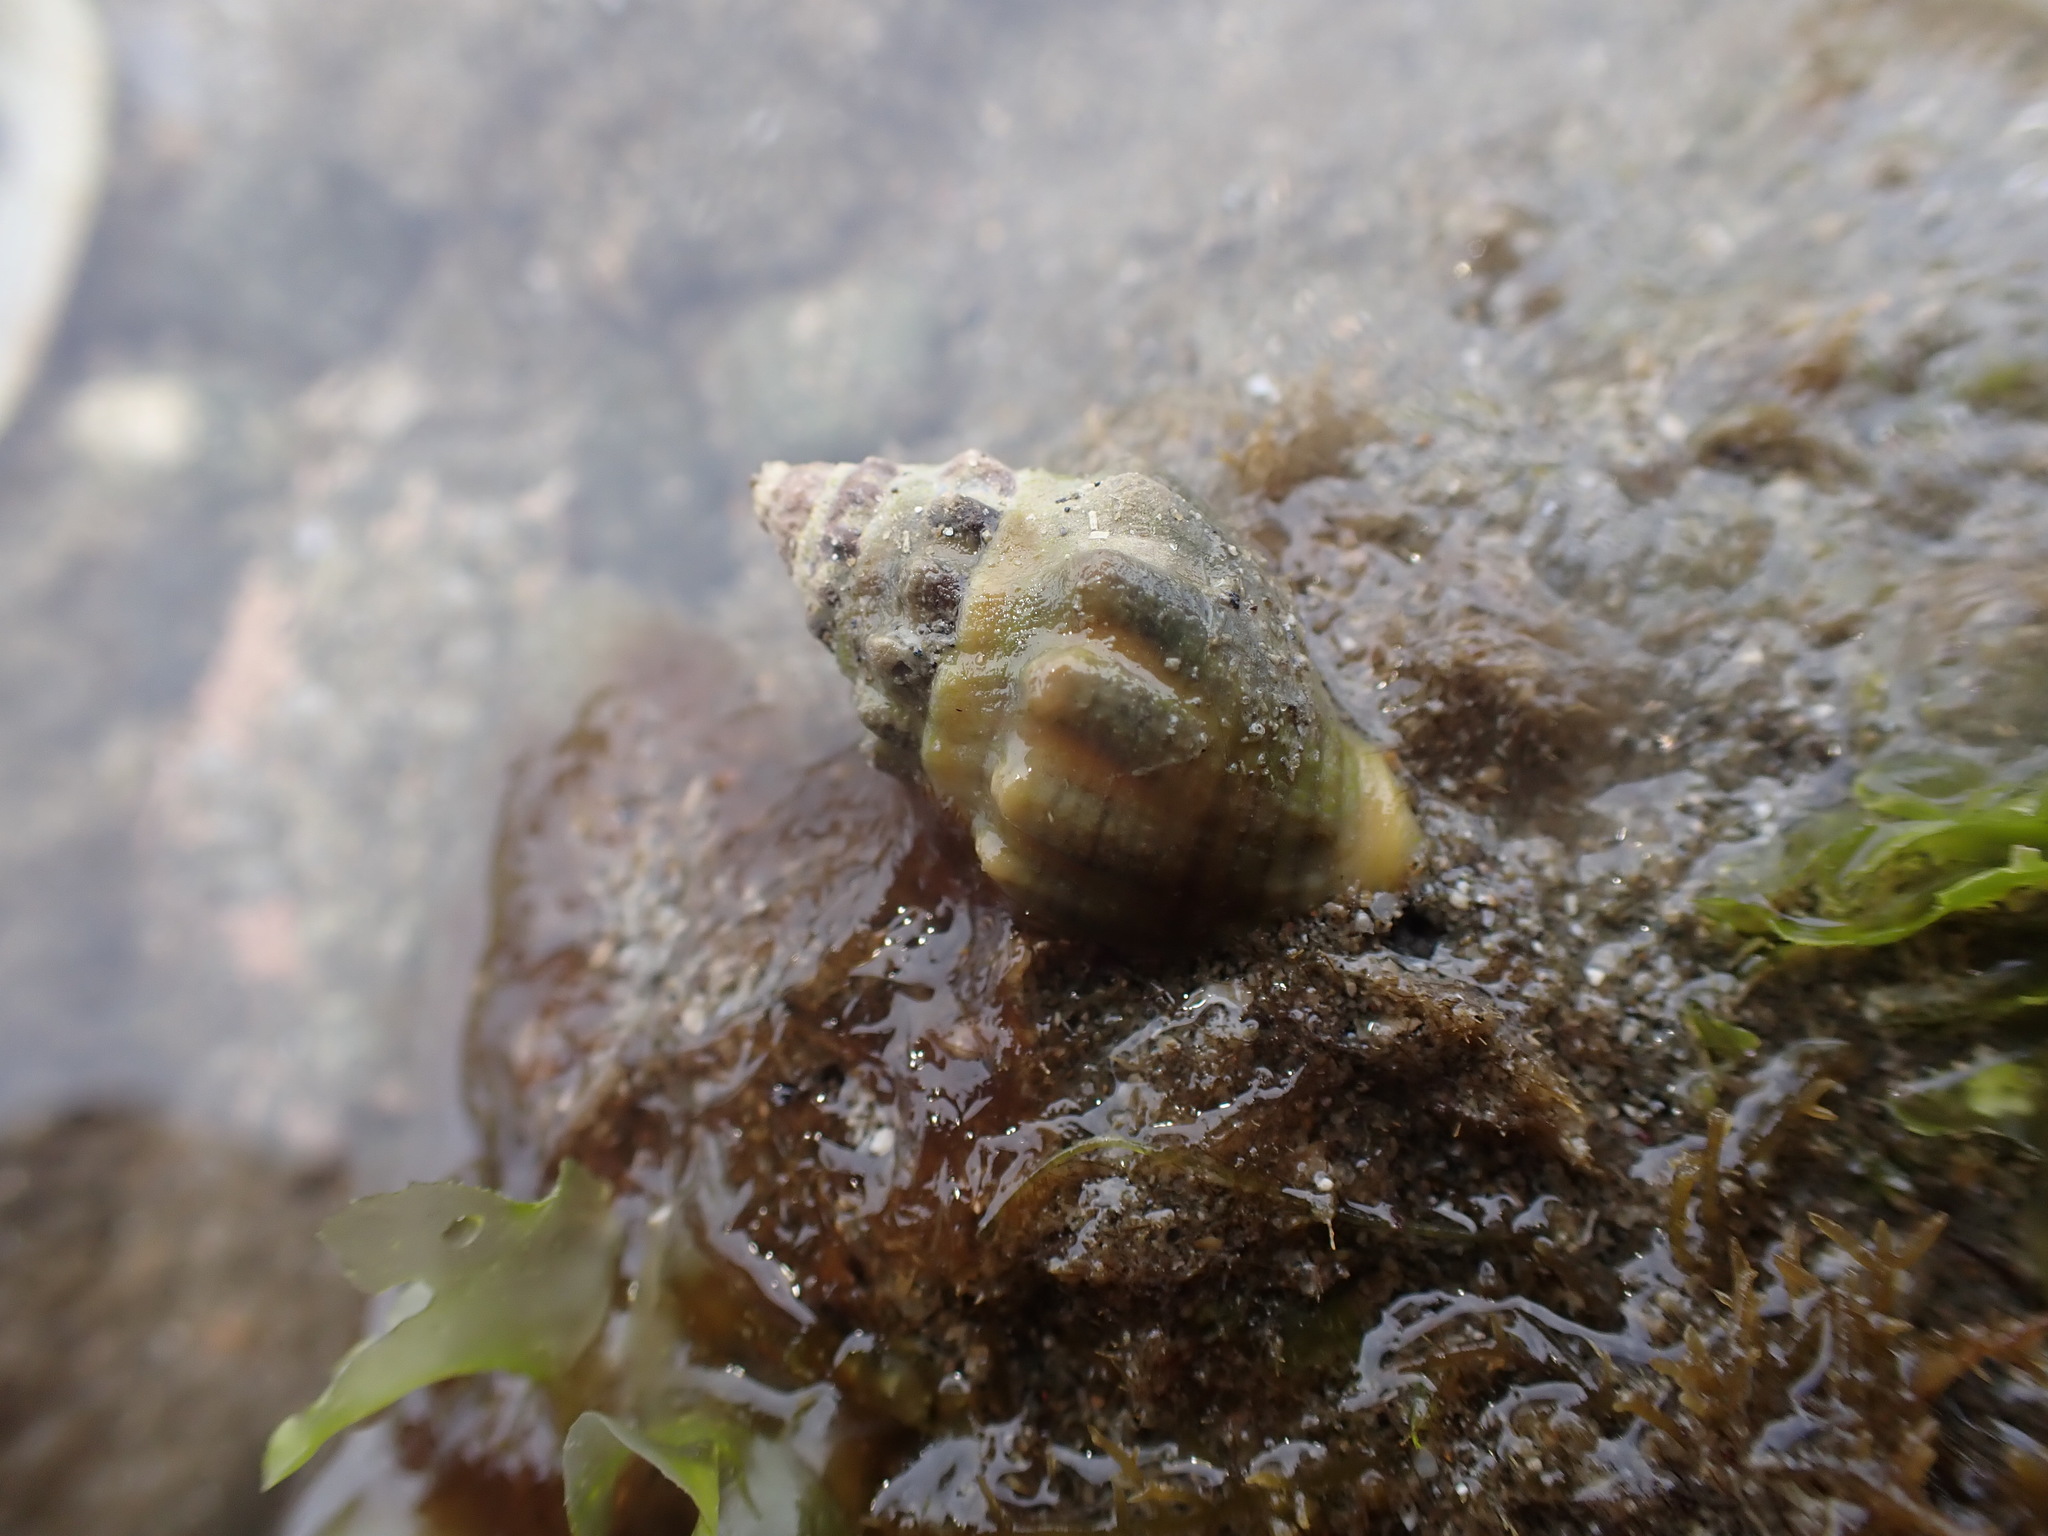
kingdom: Animalia
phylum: Mollusca
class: Gastropoda
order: Neogastropoda
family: Cominellidae
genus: Cominella
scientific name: Cominella glandiformis
